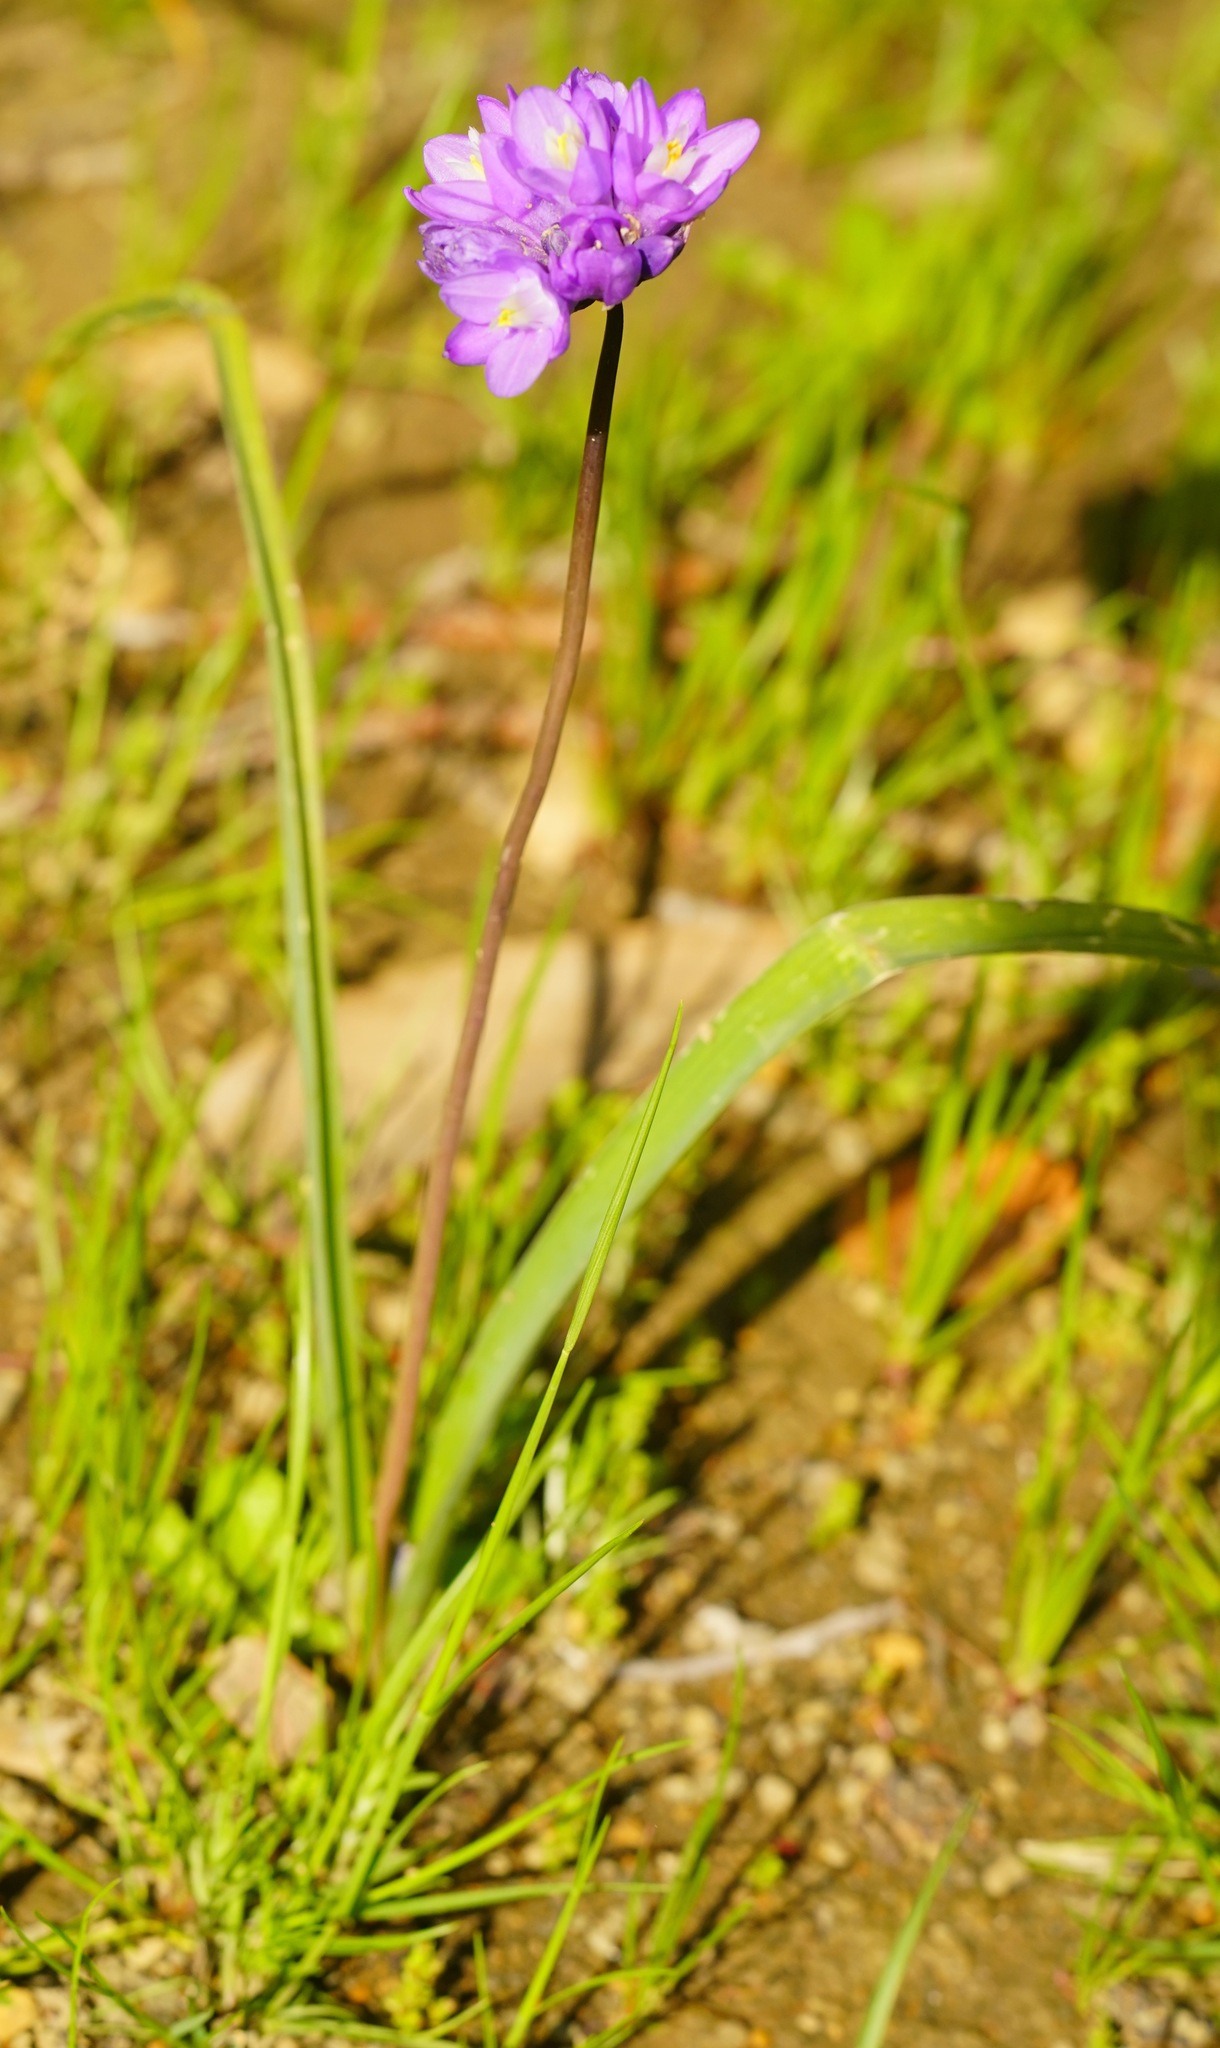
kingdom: Plantae
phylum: Tracheophyta
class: Liliopsida
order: Asparagales
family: Asparagaceae
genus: Dipterostemon
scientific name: Dipterostemon capitatus
